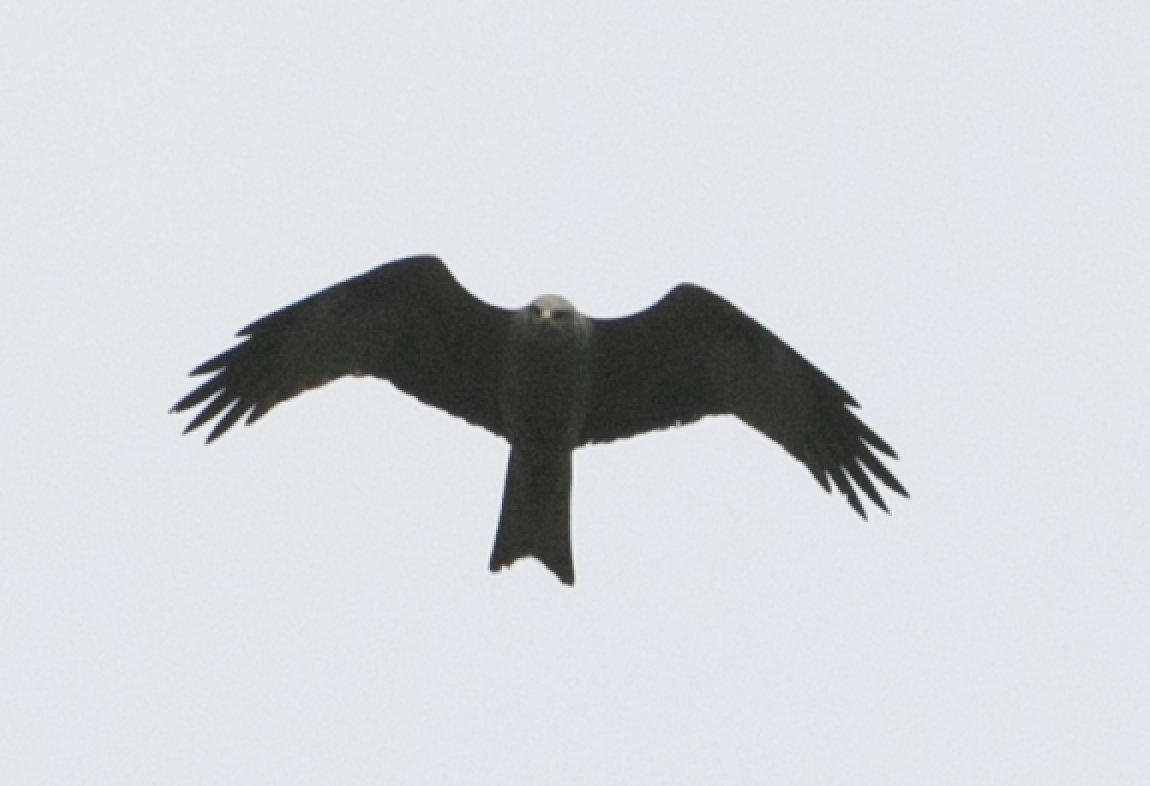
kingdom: Animalia
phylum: Chordata
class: Aves
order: Accipitriformes
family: Accipitridae
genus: Milvus
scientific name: Milvus migrans
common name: Black kite
